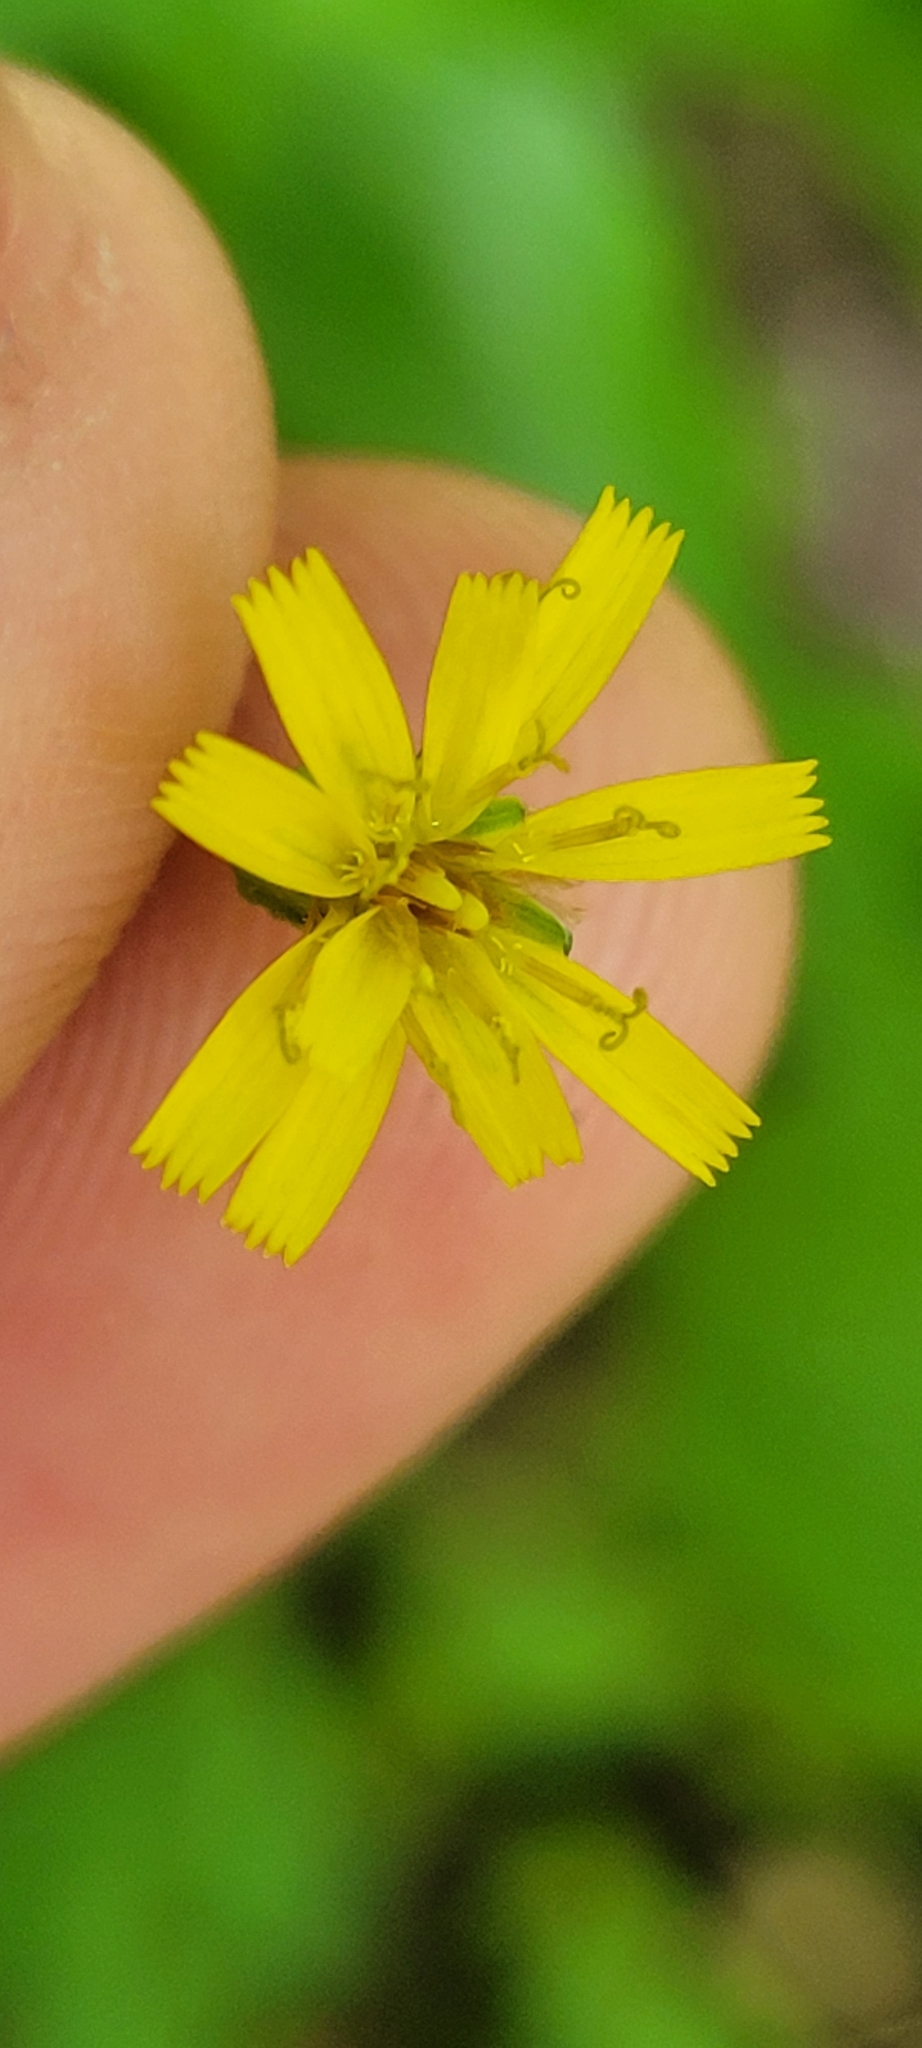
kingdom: Plantae
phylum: Tracheophyta
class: Magnoliopsida
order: Asterales
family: Asteraceae
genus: Hieracium
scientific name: Hieracium paniculatum
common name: Allegheny hawkweed
